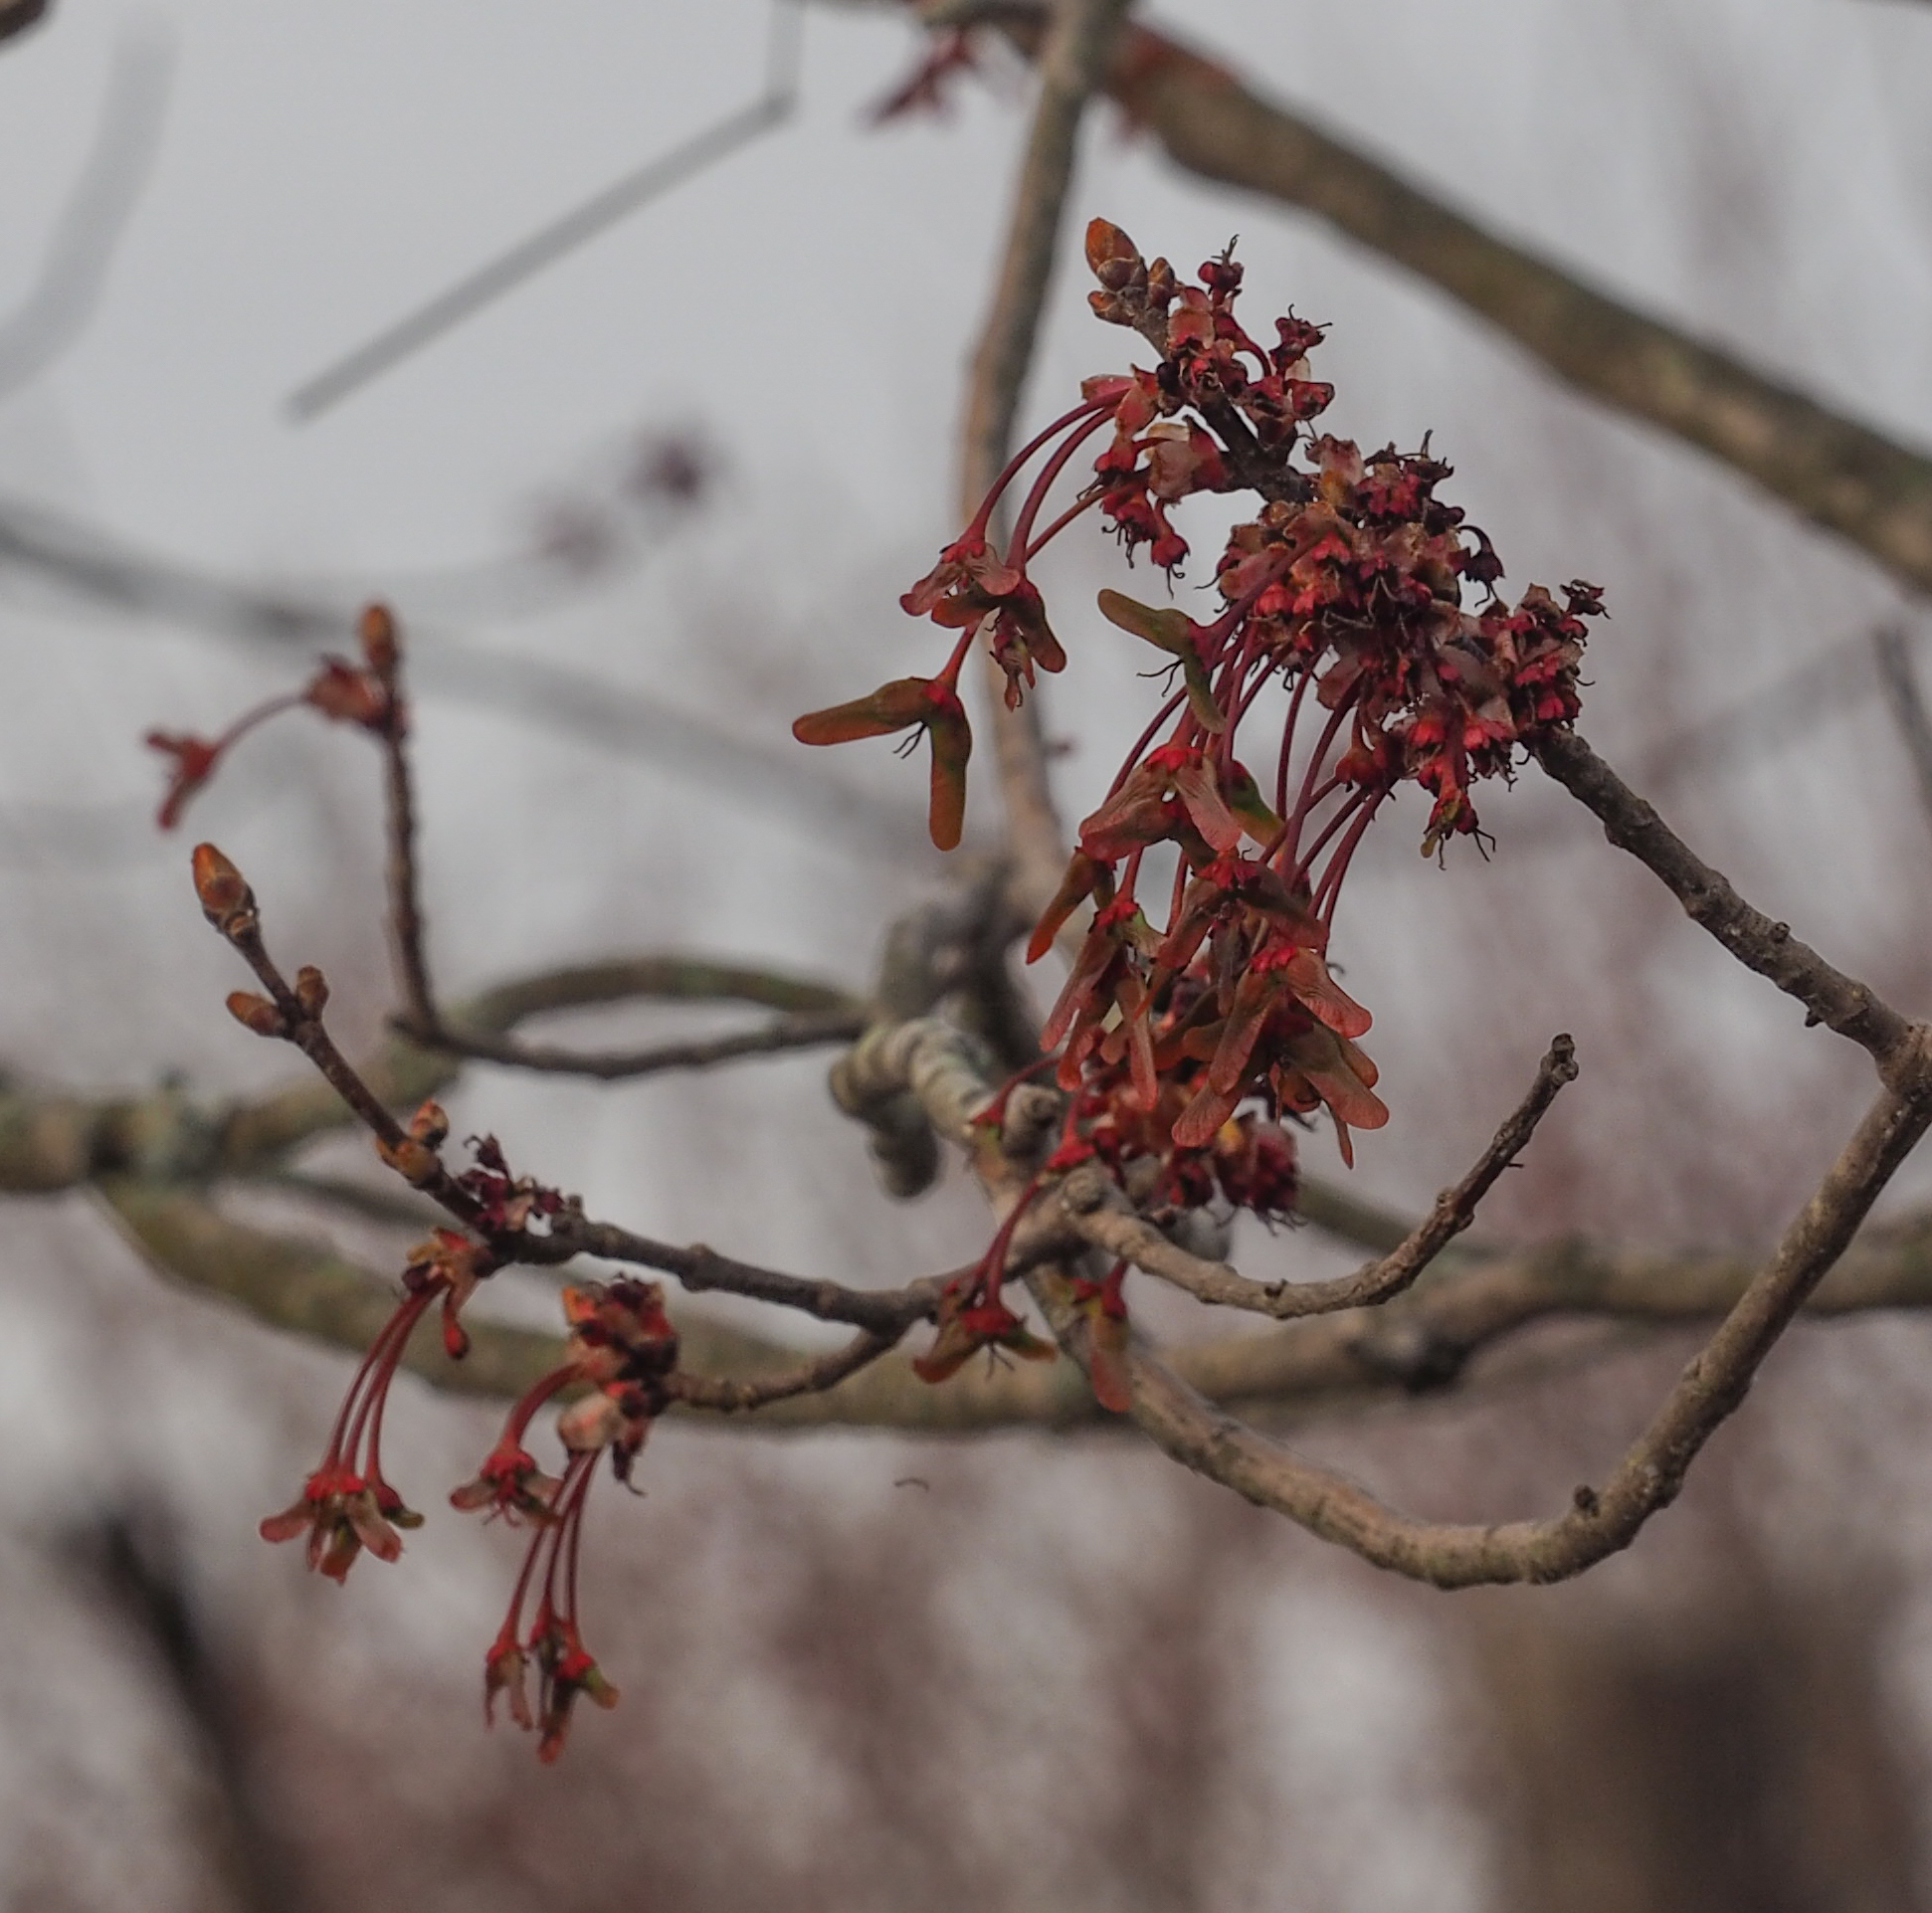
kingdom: Plantae
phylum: Tracheophyta
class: Magnoliopsida
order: Sapindales
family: Sapindaceae
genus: Acer
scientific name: Acer rubrum
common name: Red maple
